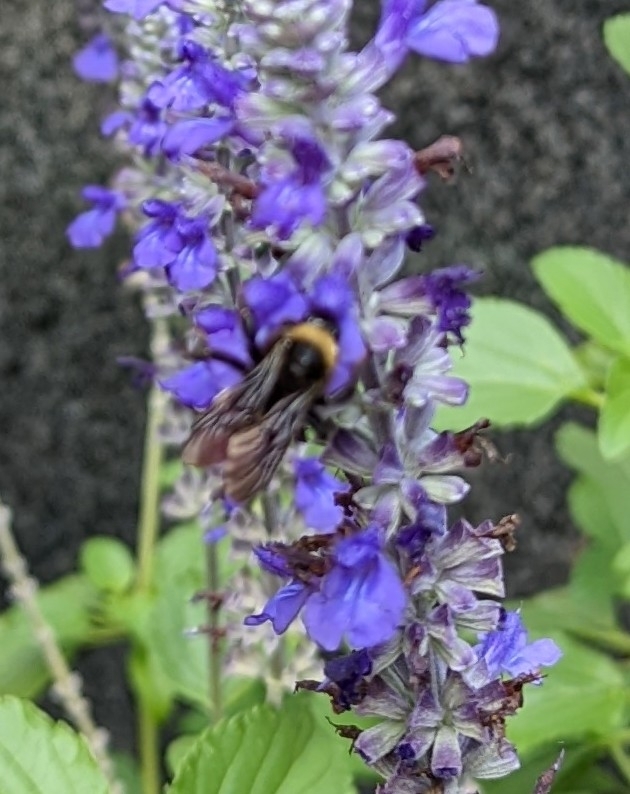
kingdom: Animalia
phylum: Arthropoda
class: Insecta
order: Hymenoptera
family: Apidae
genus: Bombus
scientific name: Bombus pensylvanicus
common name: Bumble bee
